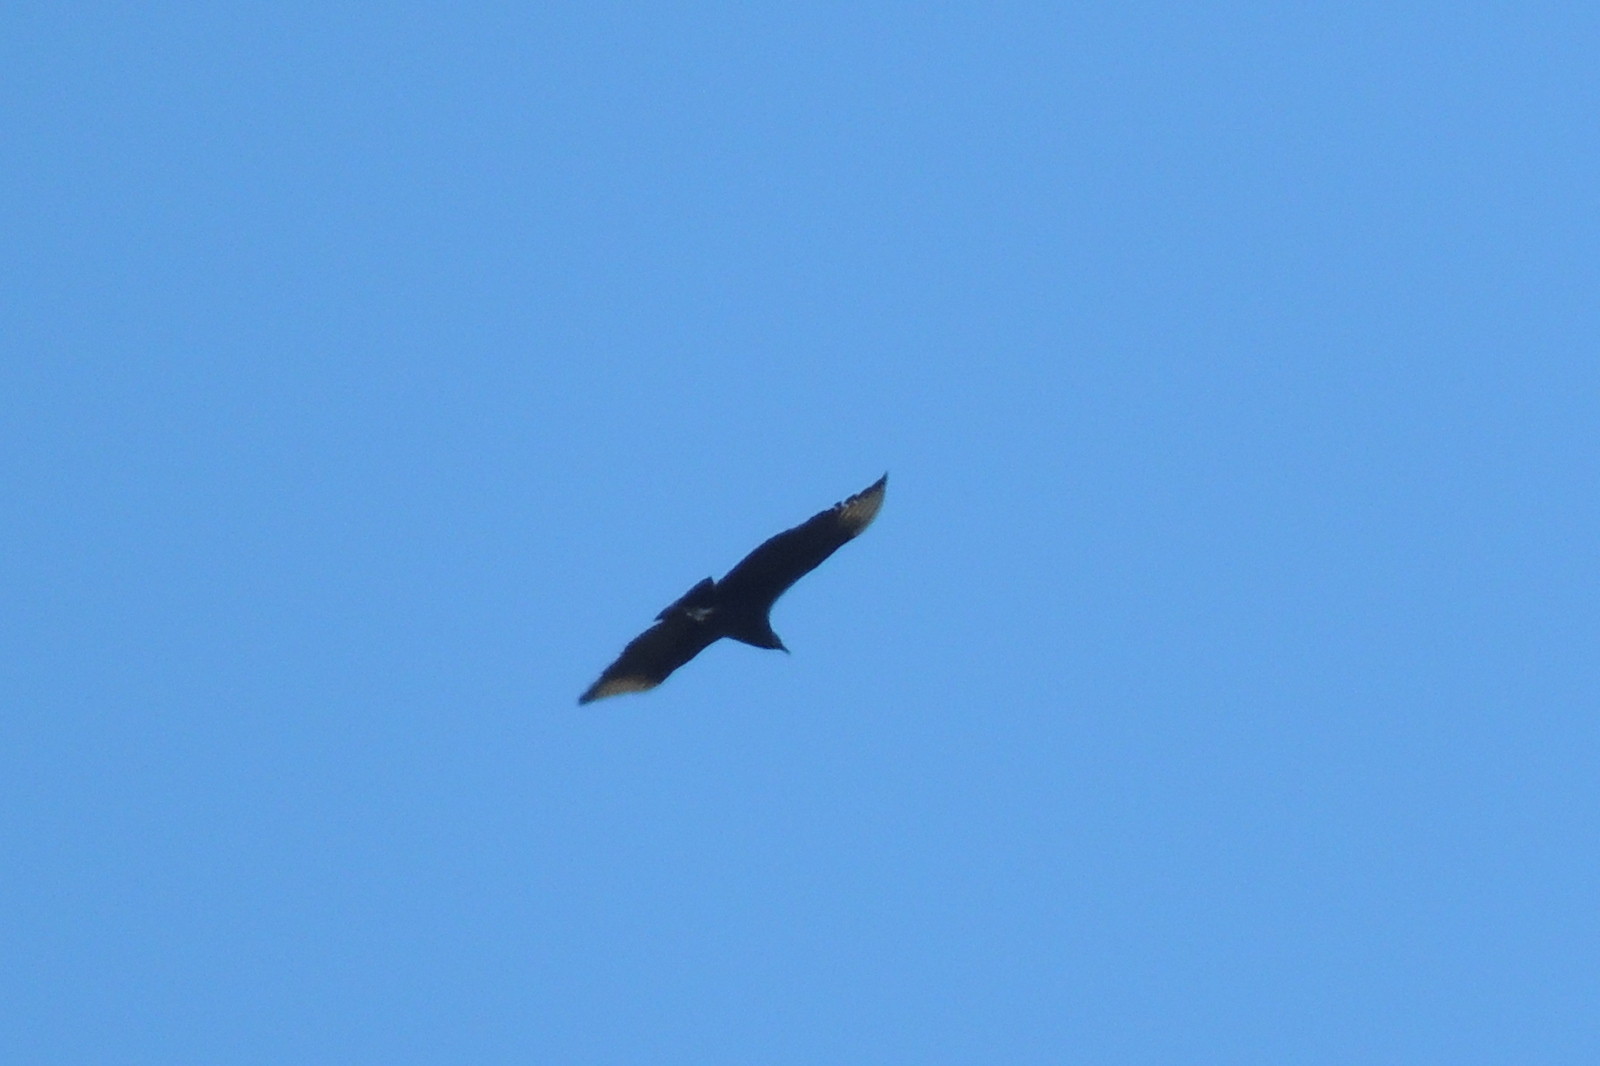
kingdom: Animalia
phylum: Chordata
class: Aves
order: Accipitriformes
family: Cathartidae
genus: Coragyps
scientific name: Coragyps atratus
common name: Black vulture
